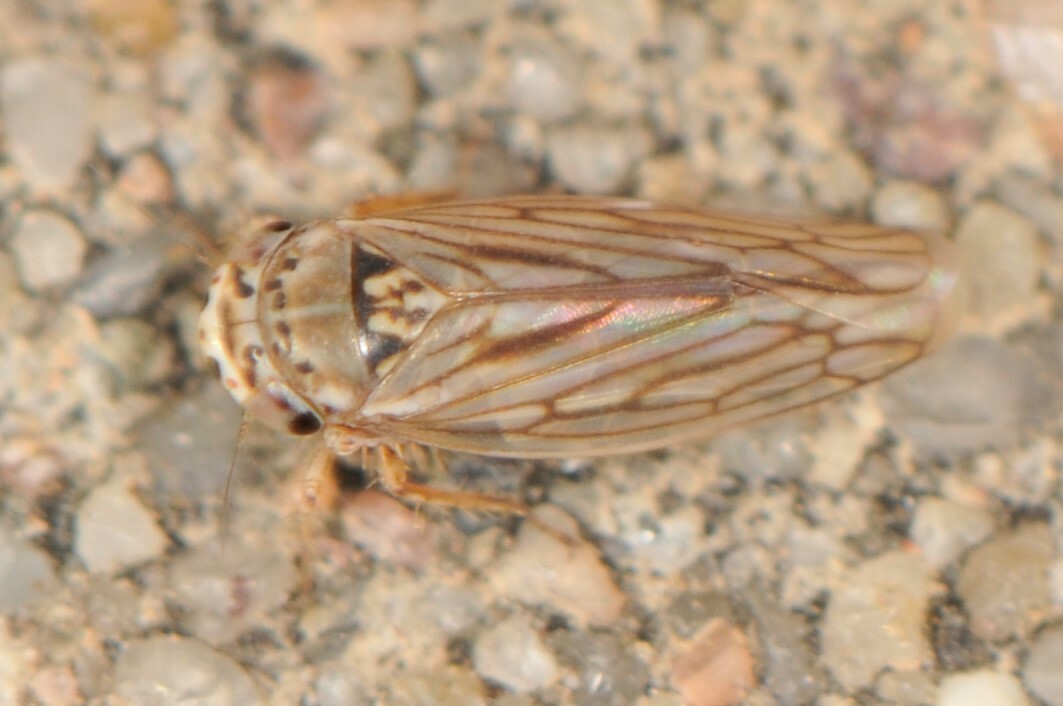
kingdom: Animalia
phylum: Arthropoda
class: Insecta
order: Hemiptera
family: Cicadellidae
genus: Exitianus
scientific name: Exitianus
